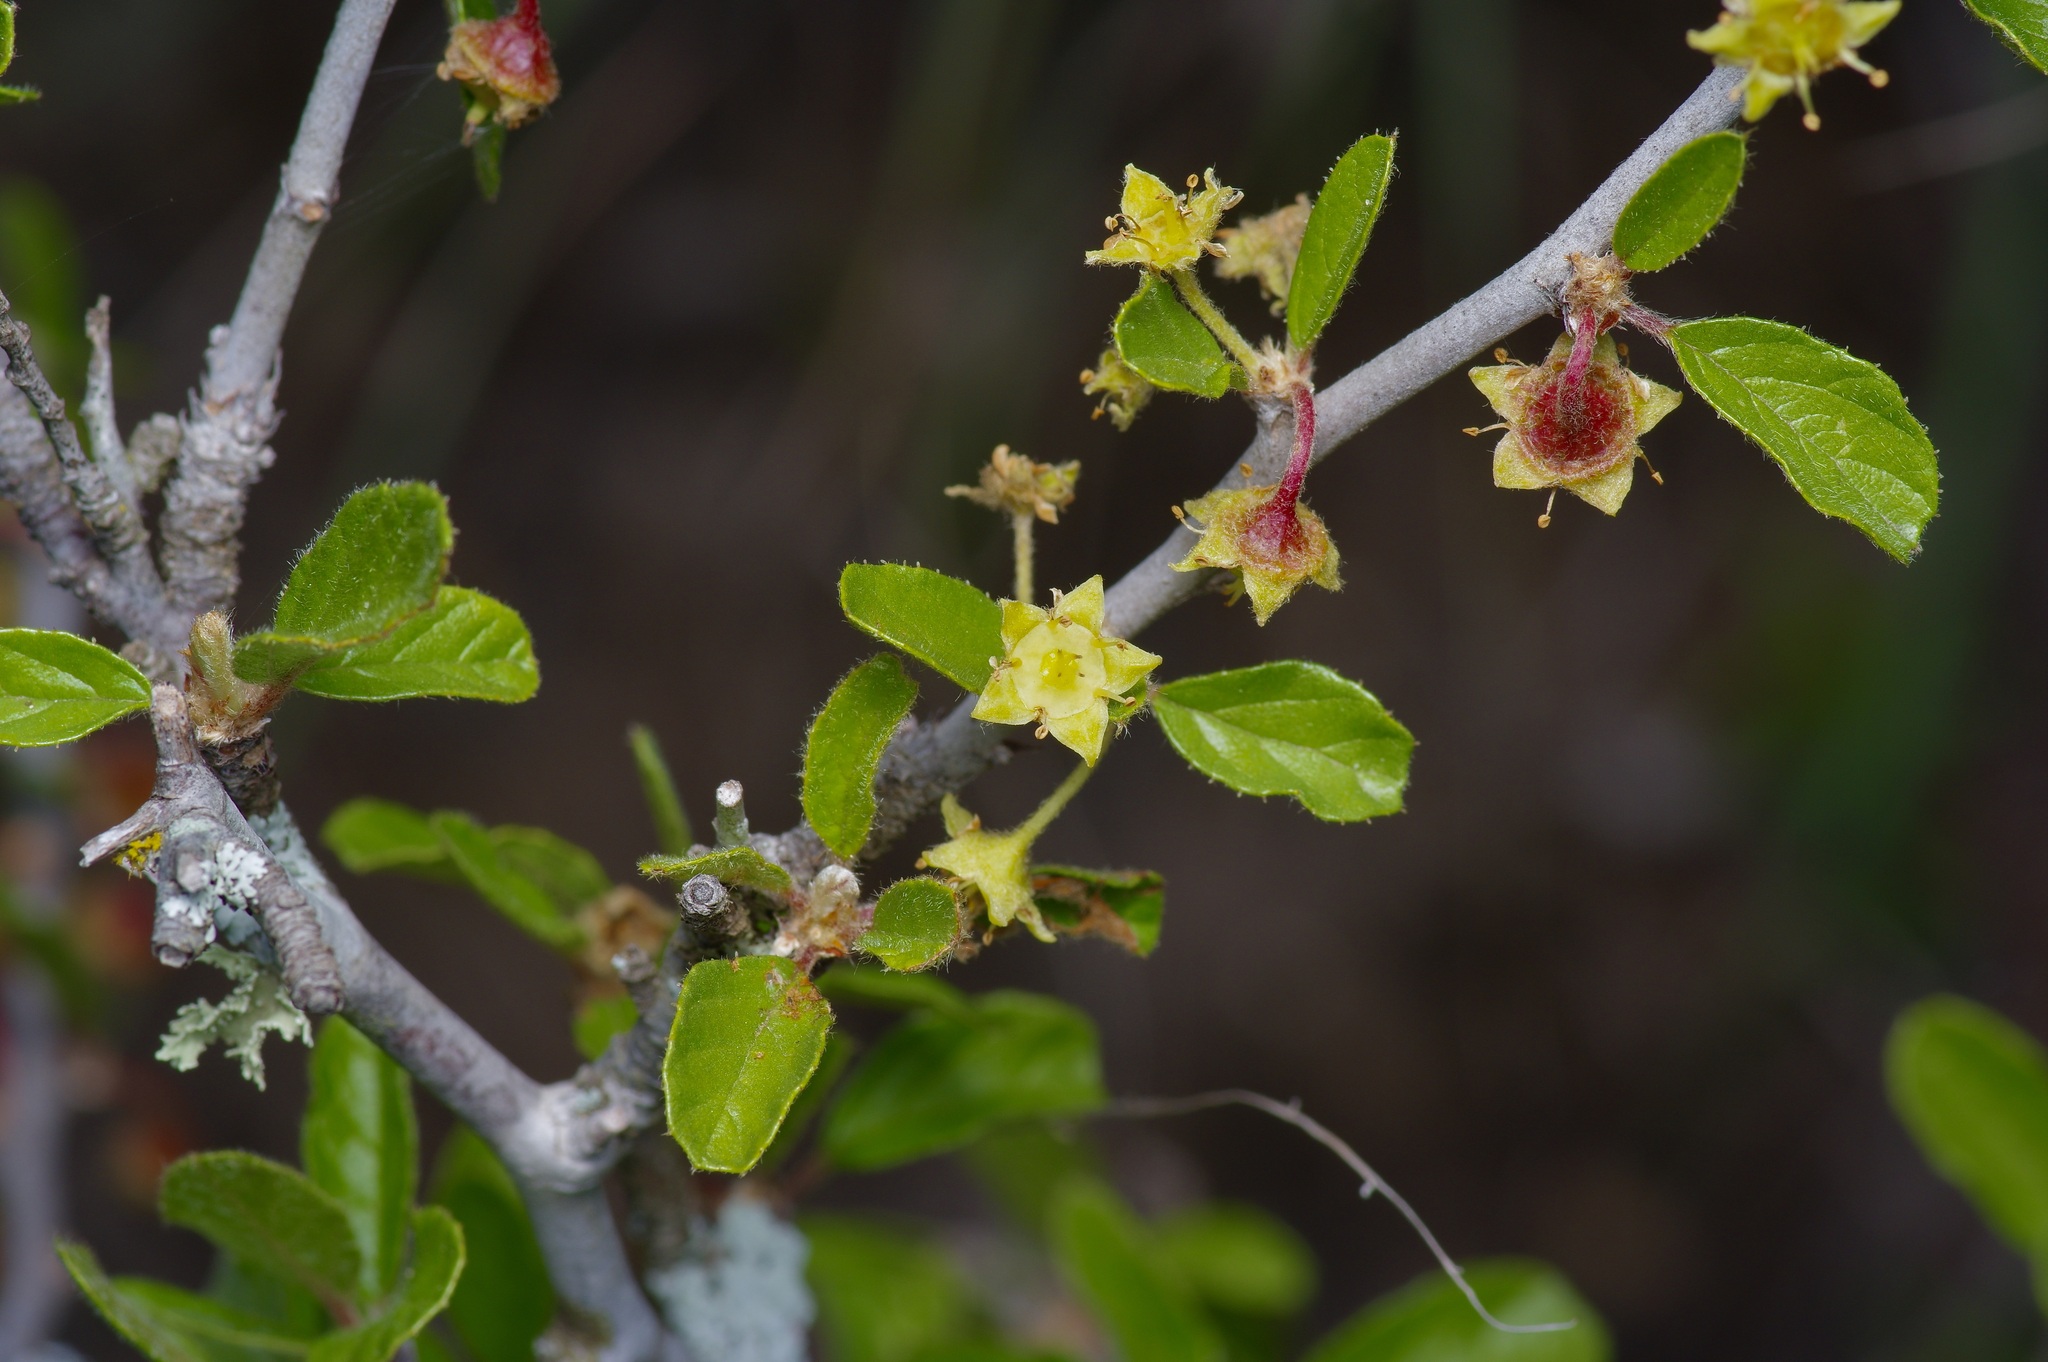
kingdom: Plantae
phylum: Tracheophyta
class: Magnoliopsida
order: Rosales
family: Rhamnaceae
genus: Colubrina
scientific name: Colubrina texensis
